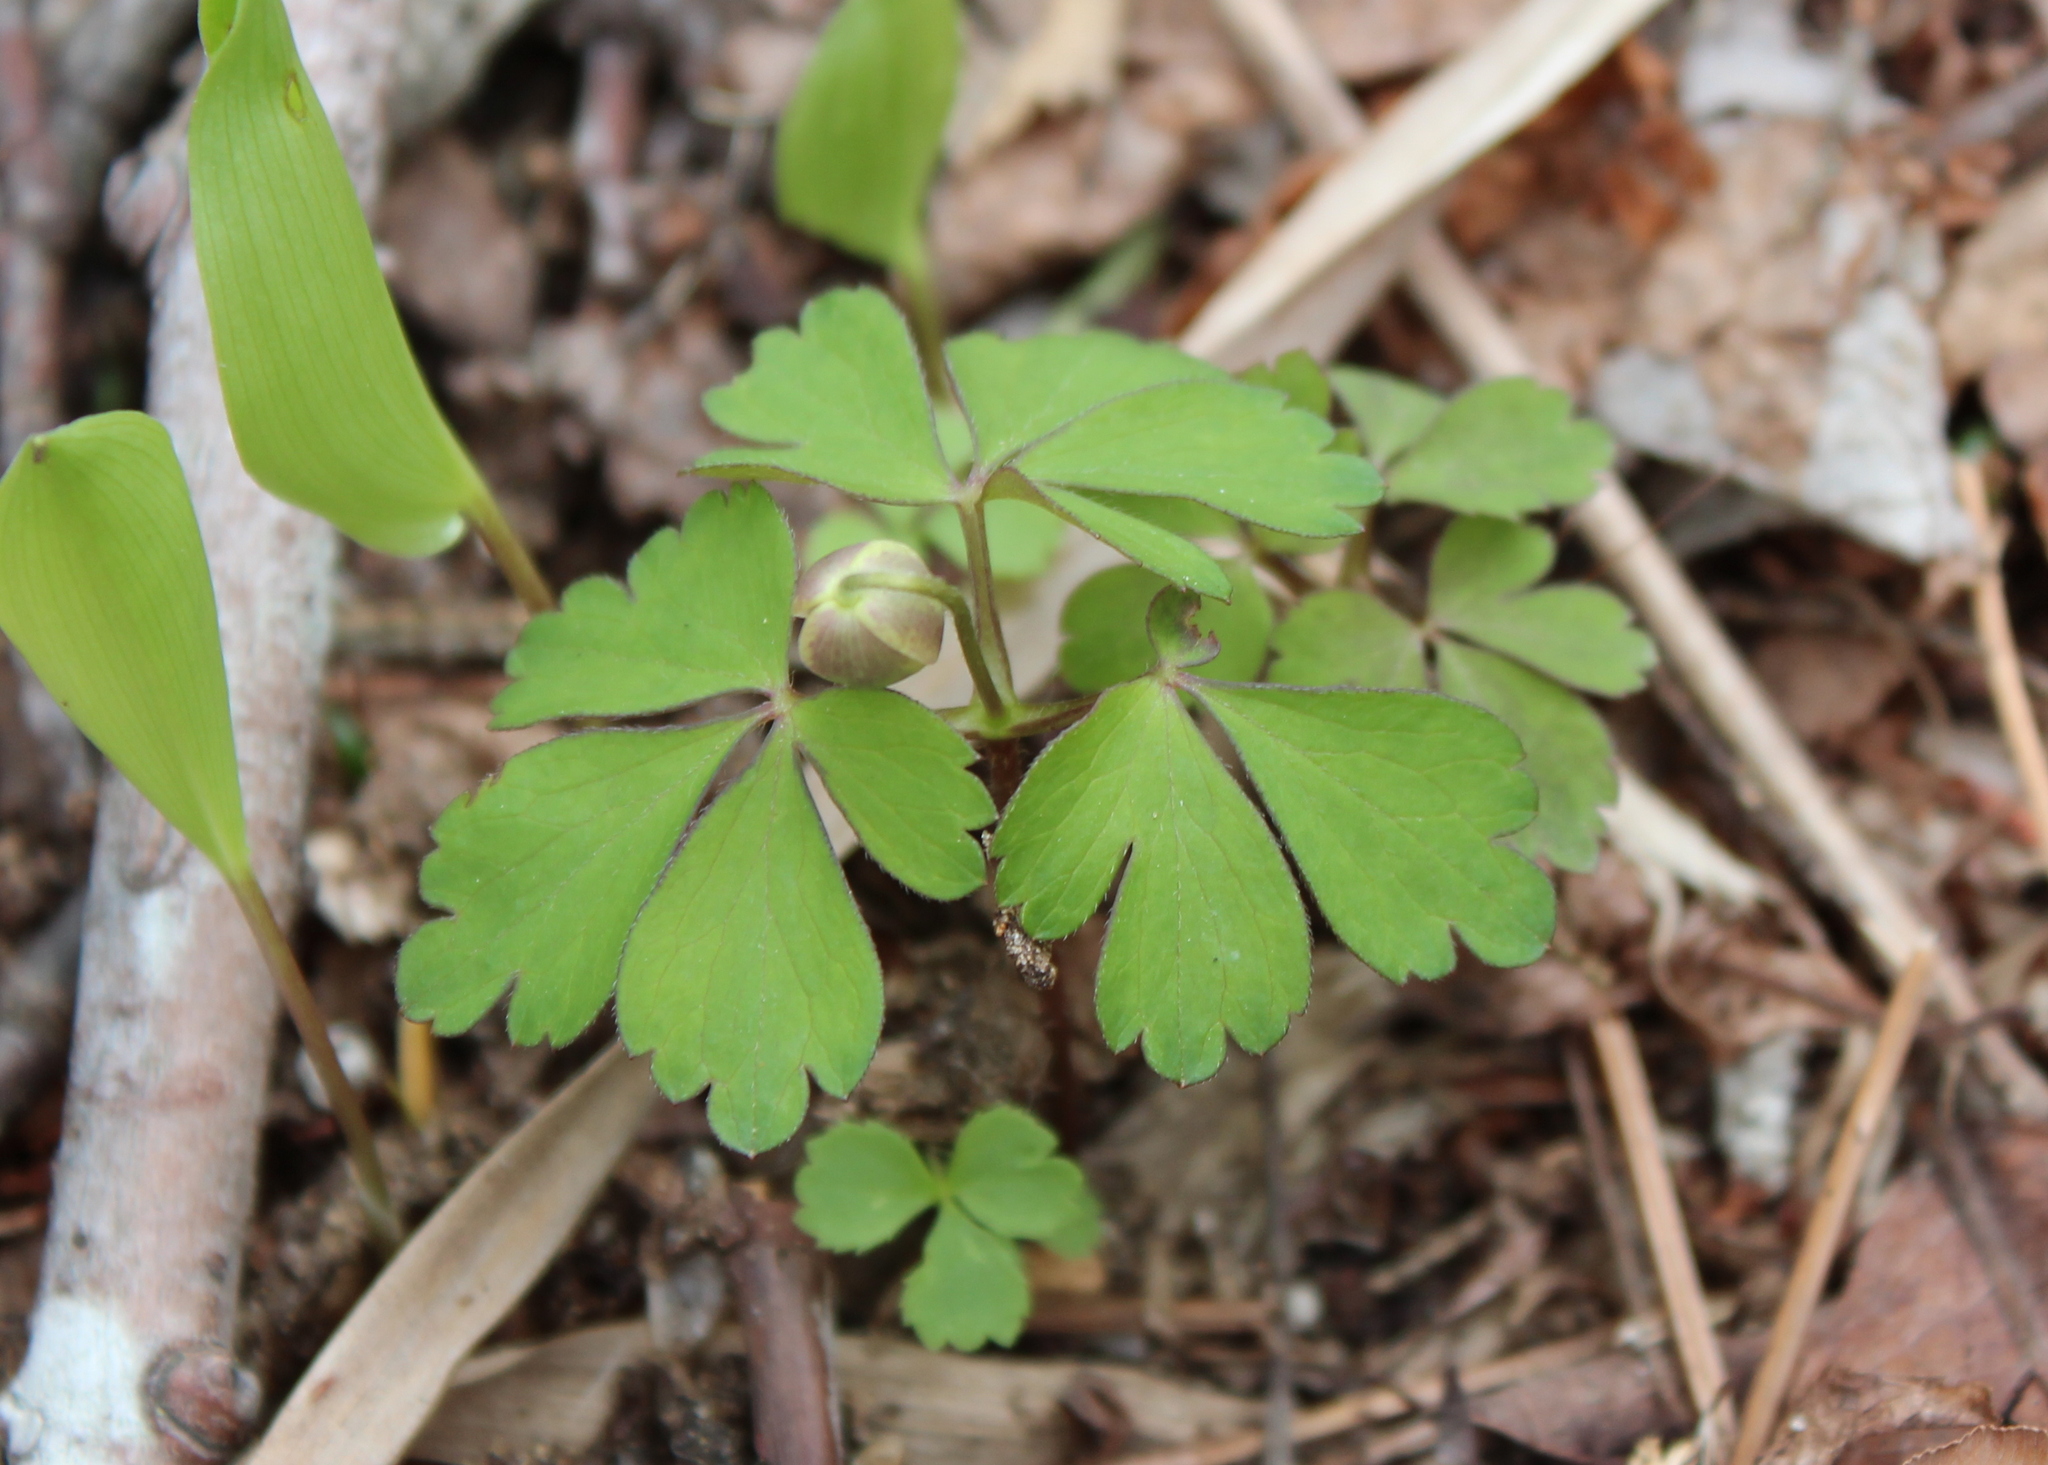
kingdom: Plantae
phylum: Tracheophyta
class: Magnoliopsida
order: Ranunculales
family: Ranunculaceae
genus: Anemone
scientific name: Anemone quinquefolia
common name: Wood anemone
